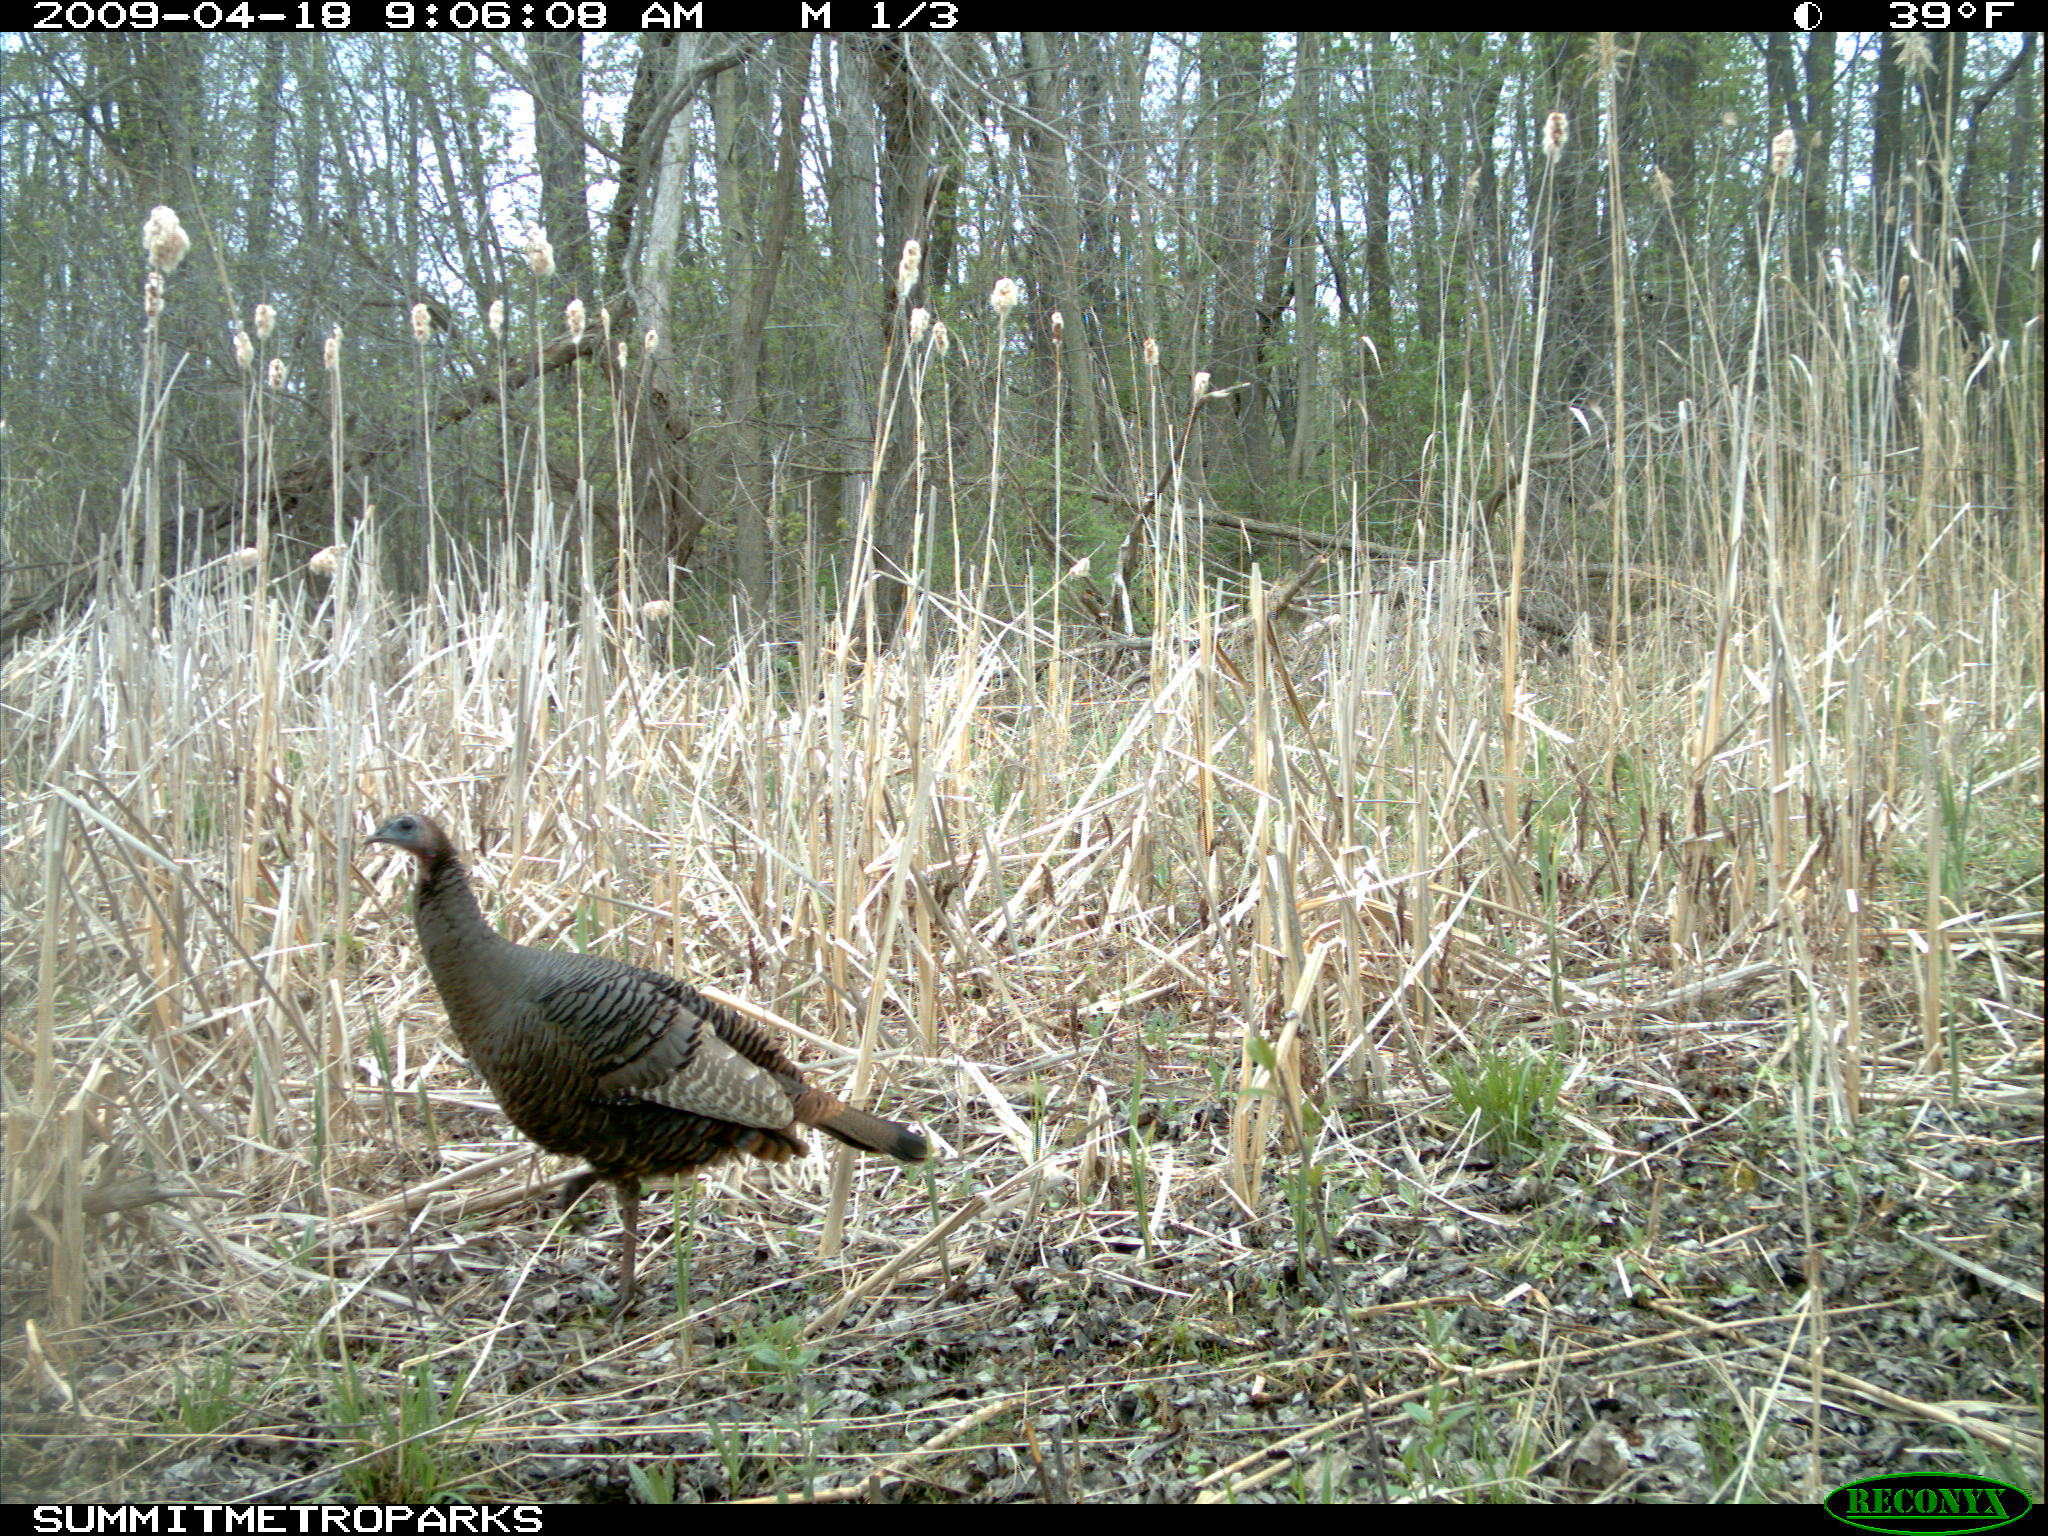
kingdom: Animalia
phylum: Chordata
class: Aves
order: Galliformes
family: Phasianidae
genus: Meleagris
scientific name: Meleagris gallopavo
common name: Wild turkey
